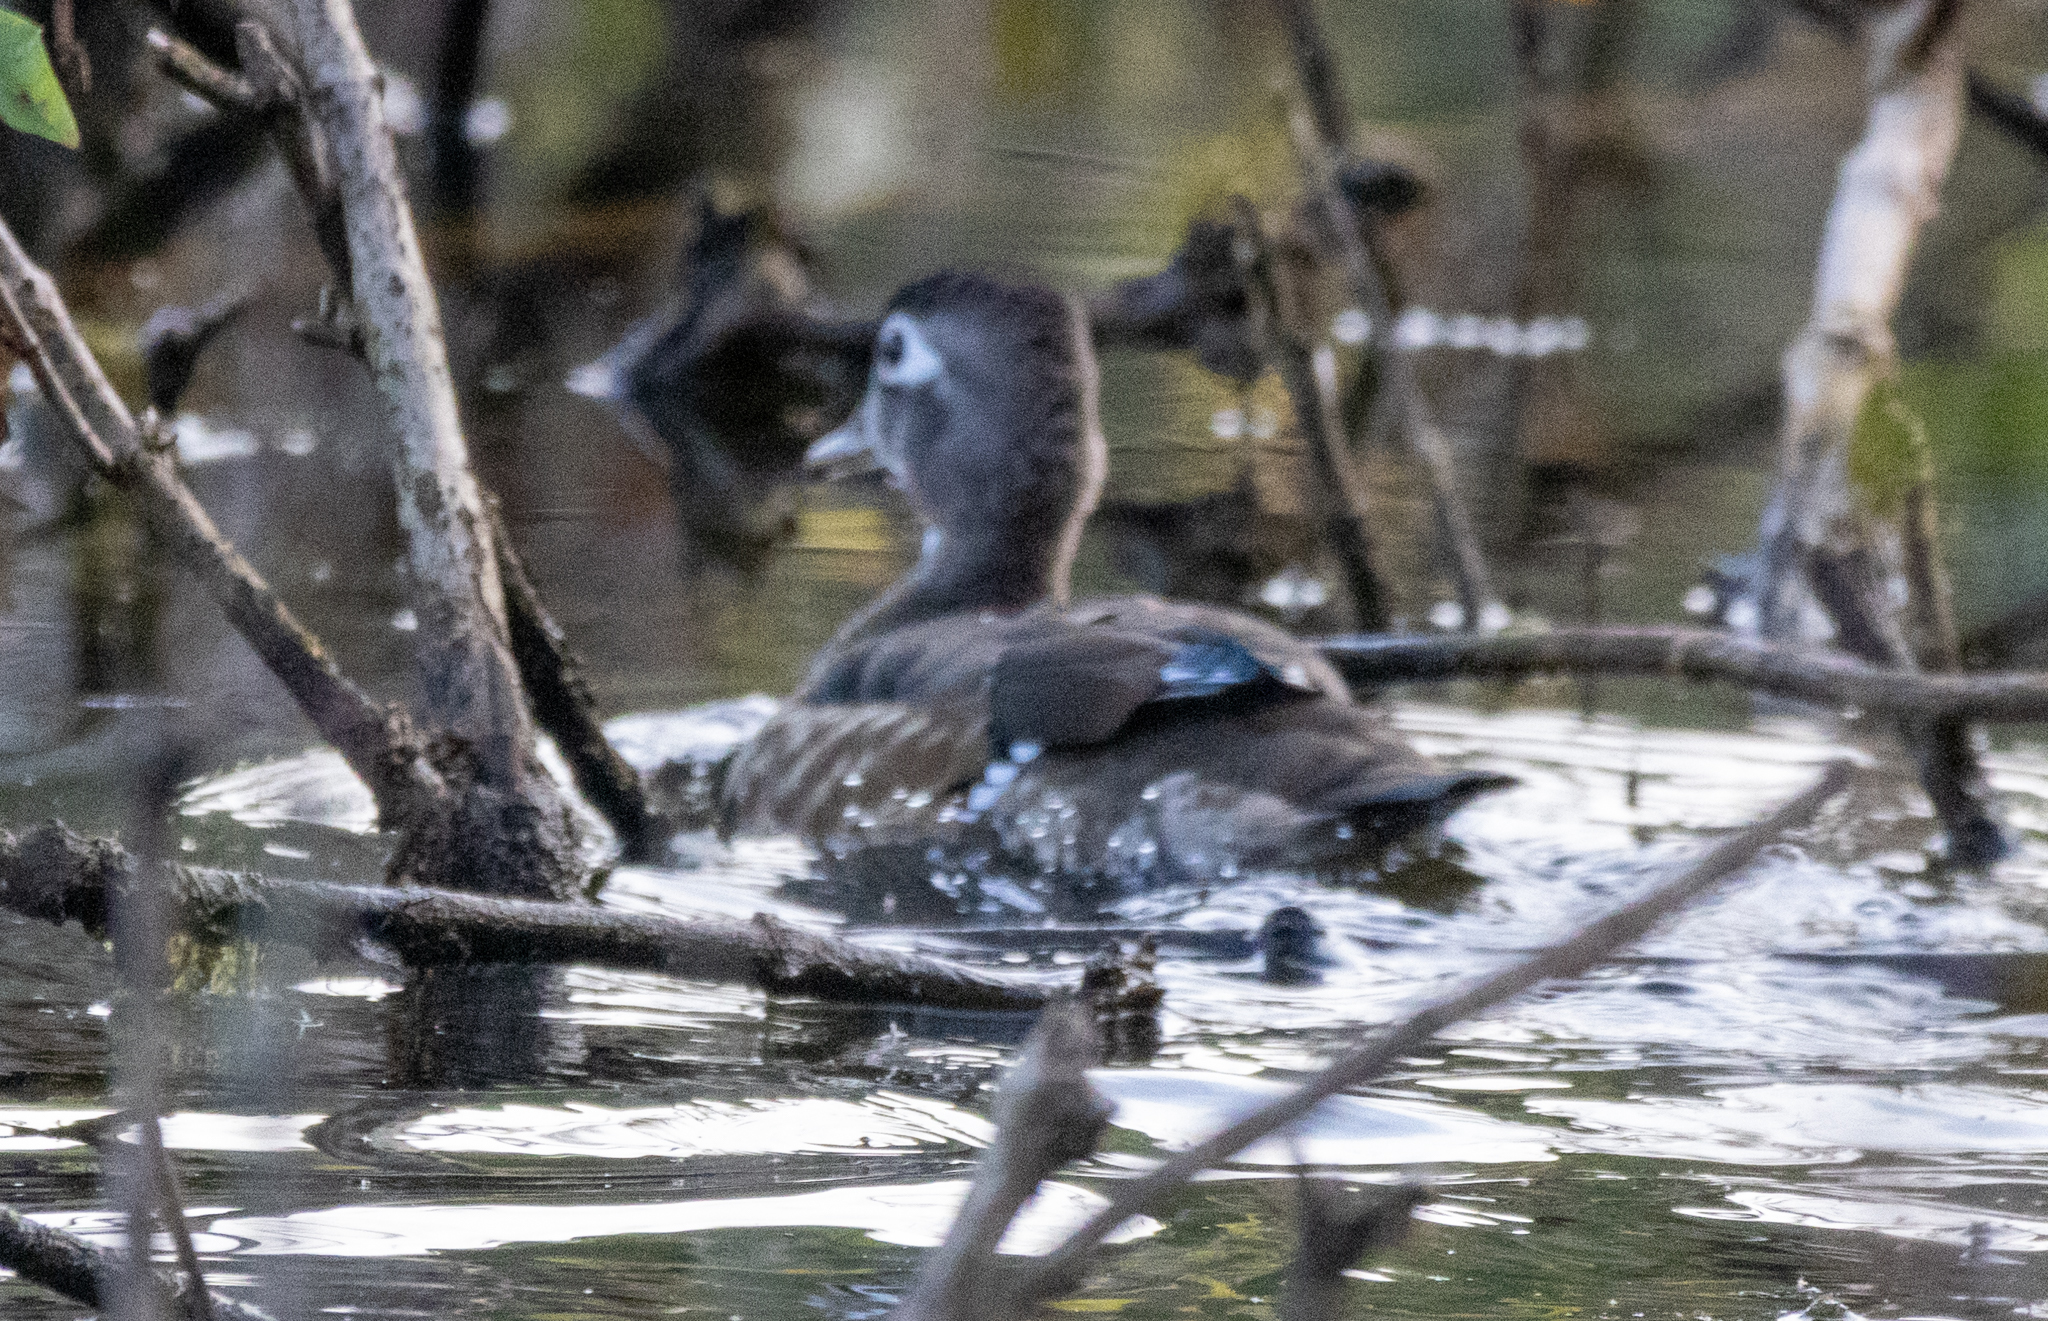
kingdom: Animalia
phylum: Chordata
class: Aves
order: Anseriformes
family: Anatidae
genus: Aix
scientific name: Aix sponsa
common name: Wood duck
